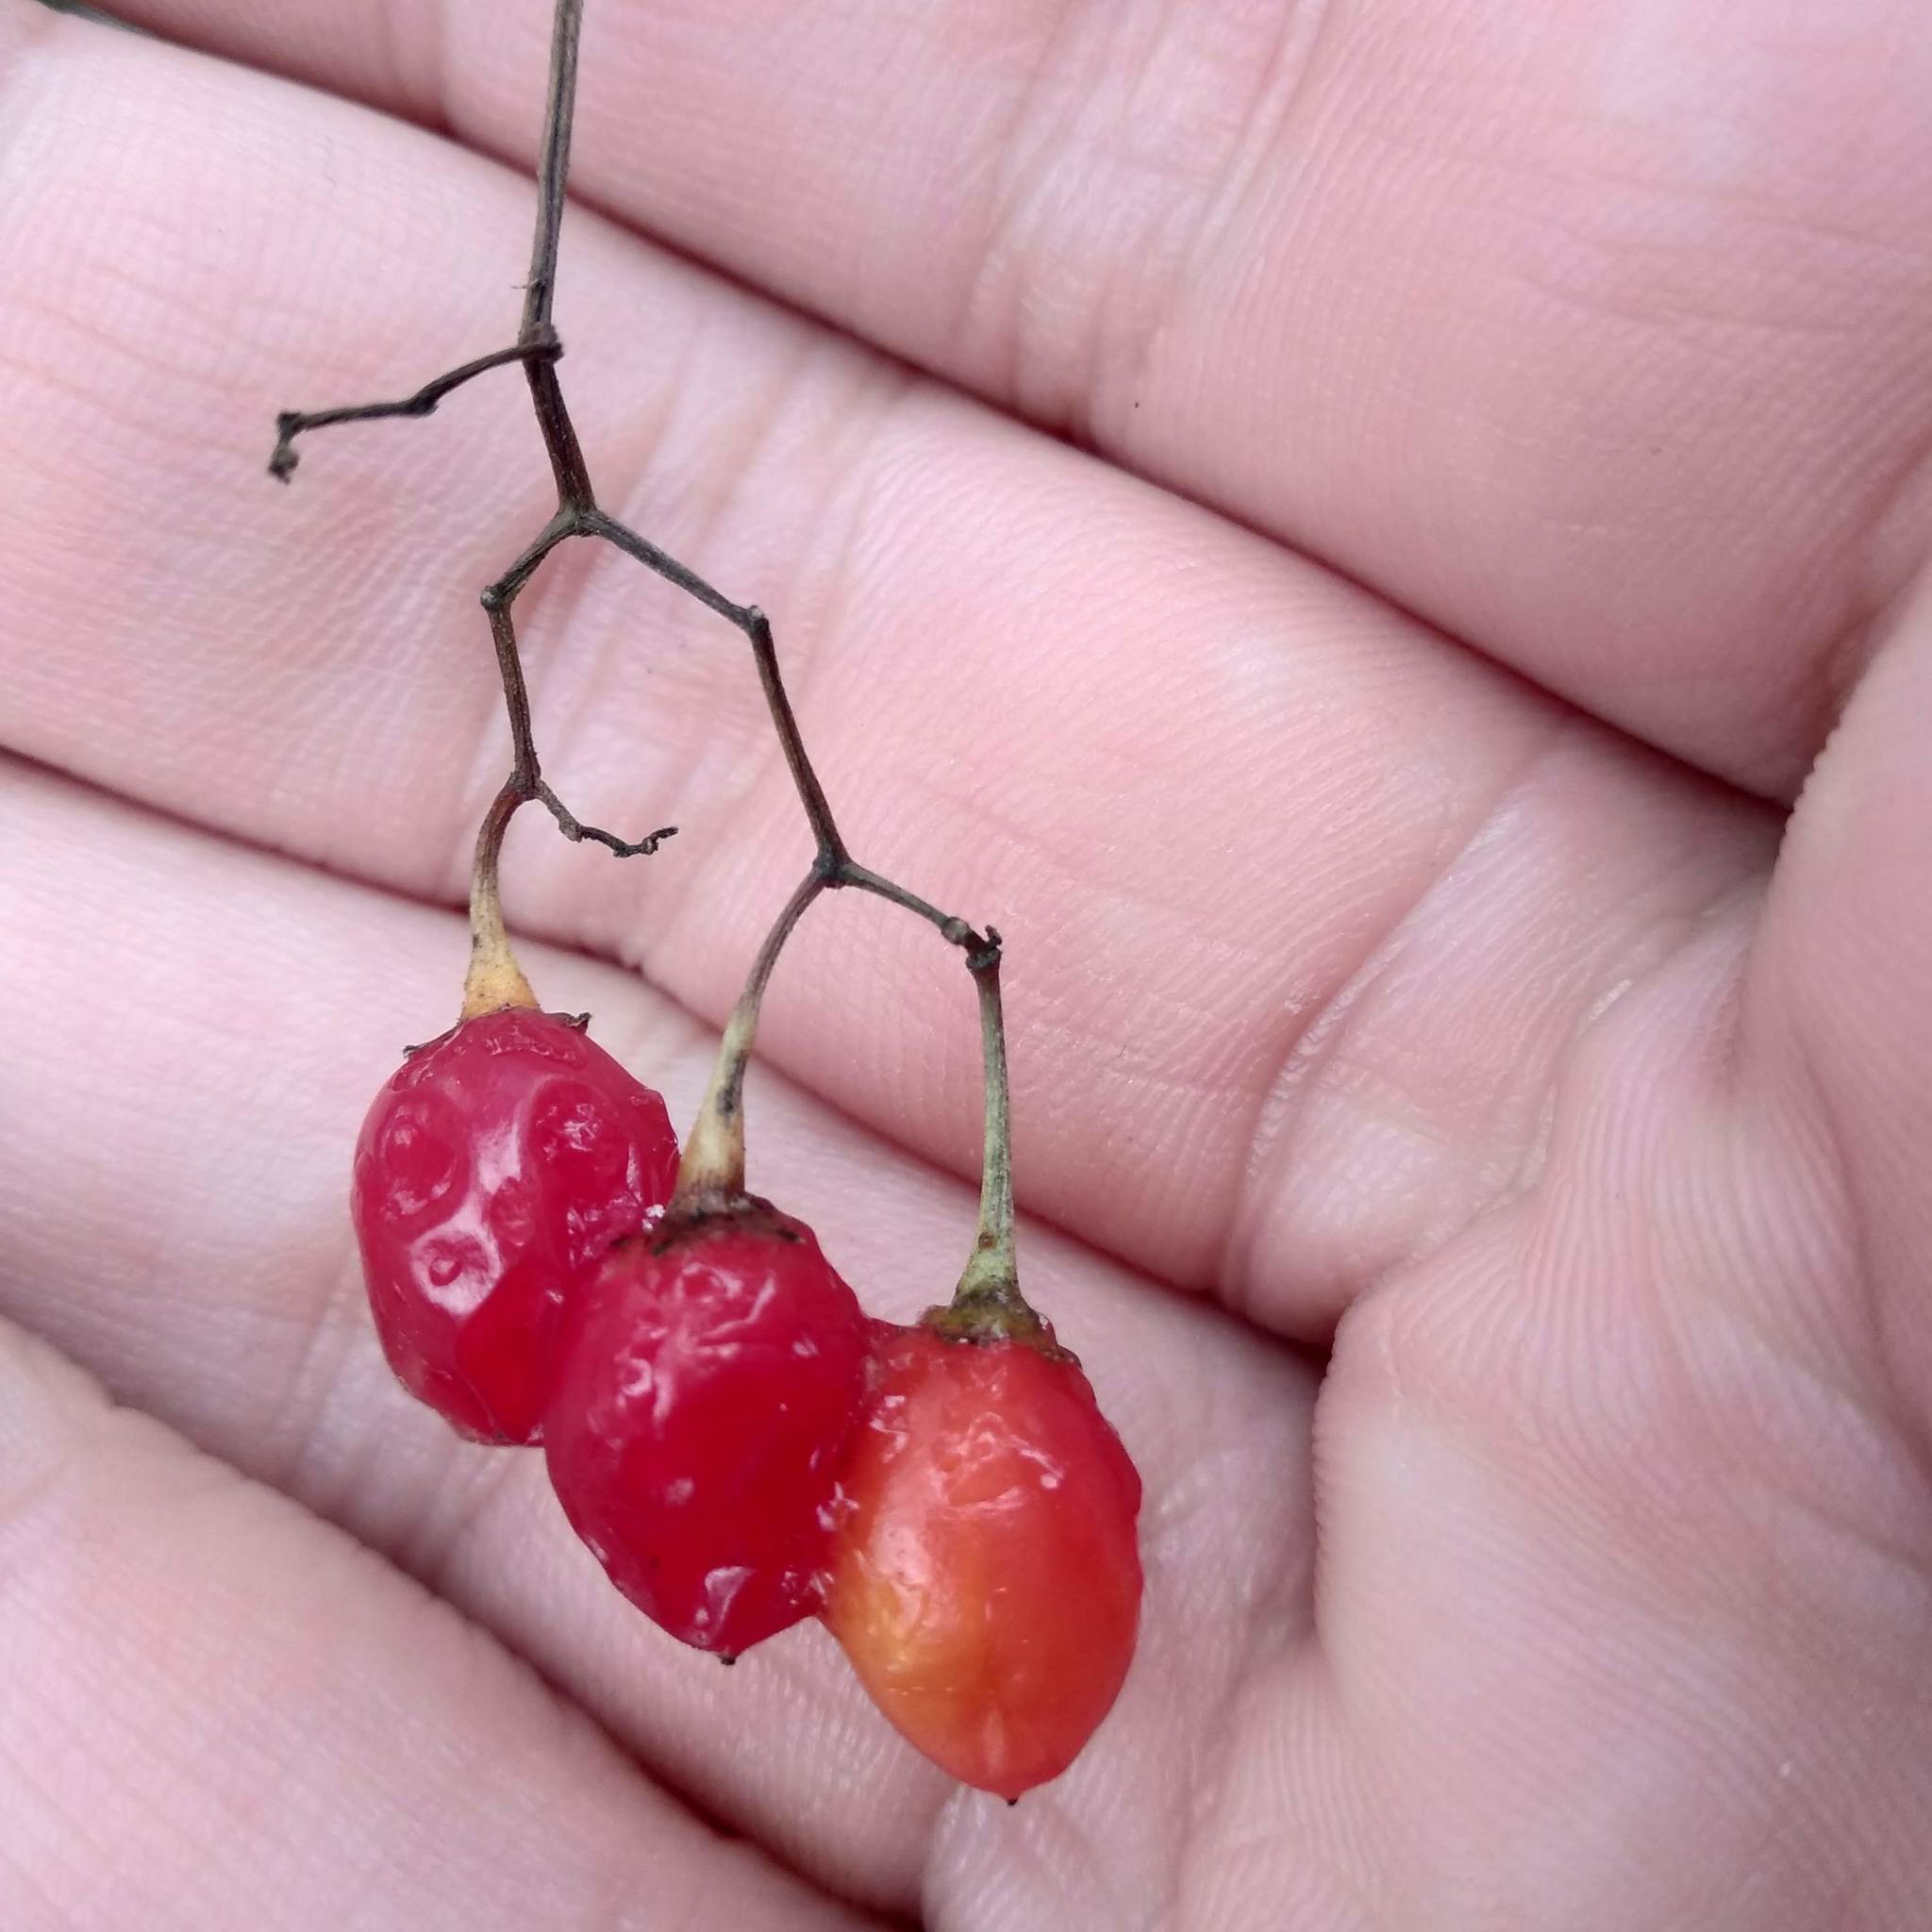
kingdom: Plantae
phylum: Tracheophyta
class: Magnoliopsida
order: Solanales
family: Solanaceae
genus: Solanum
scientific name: Solanum dulcamara
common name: Climbing nightshade
